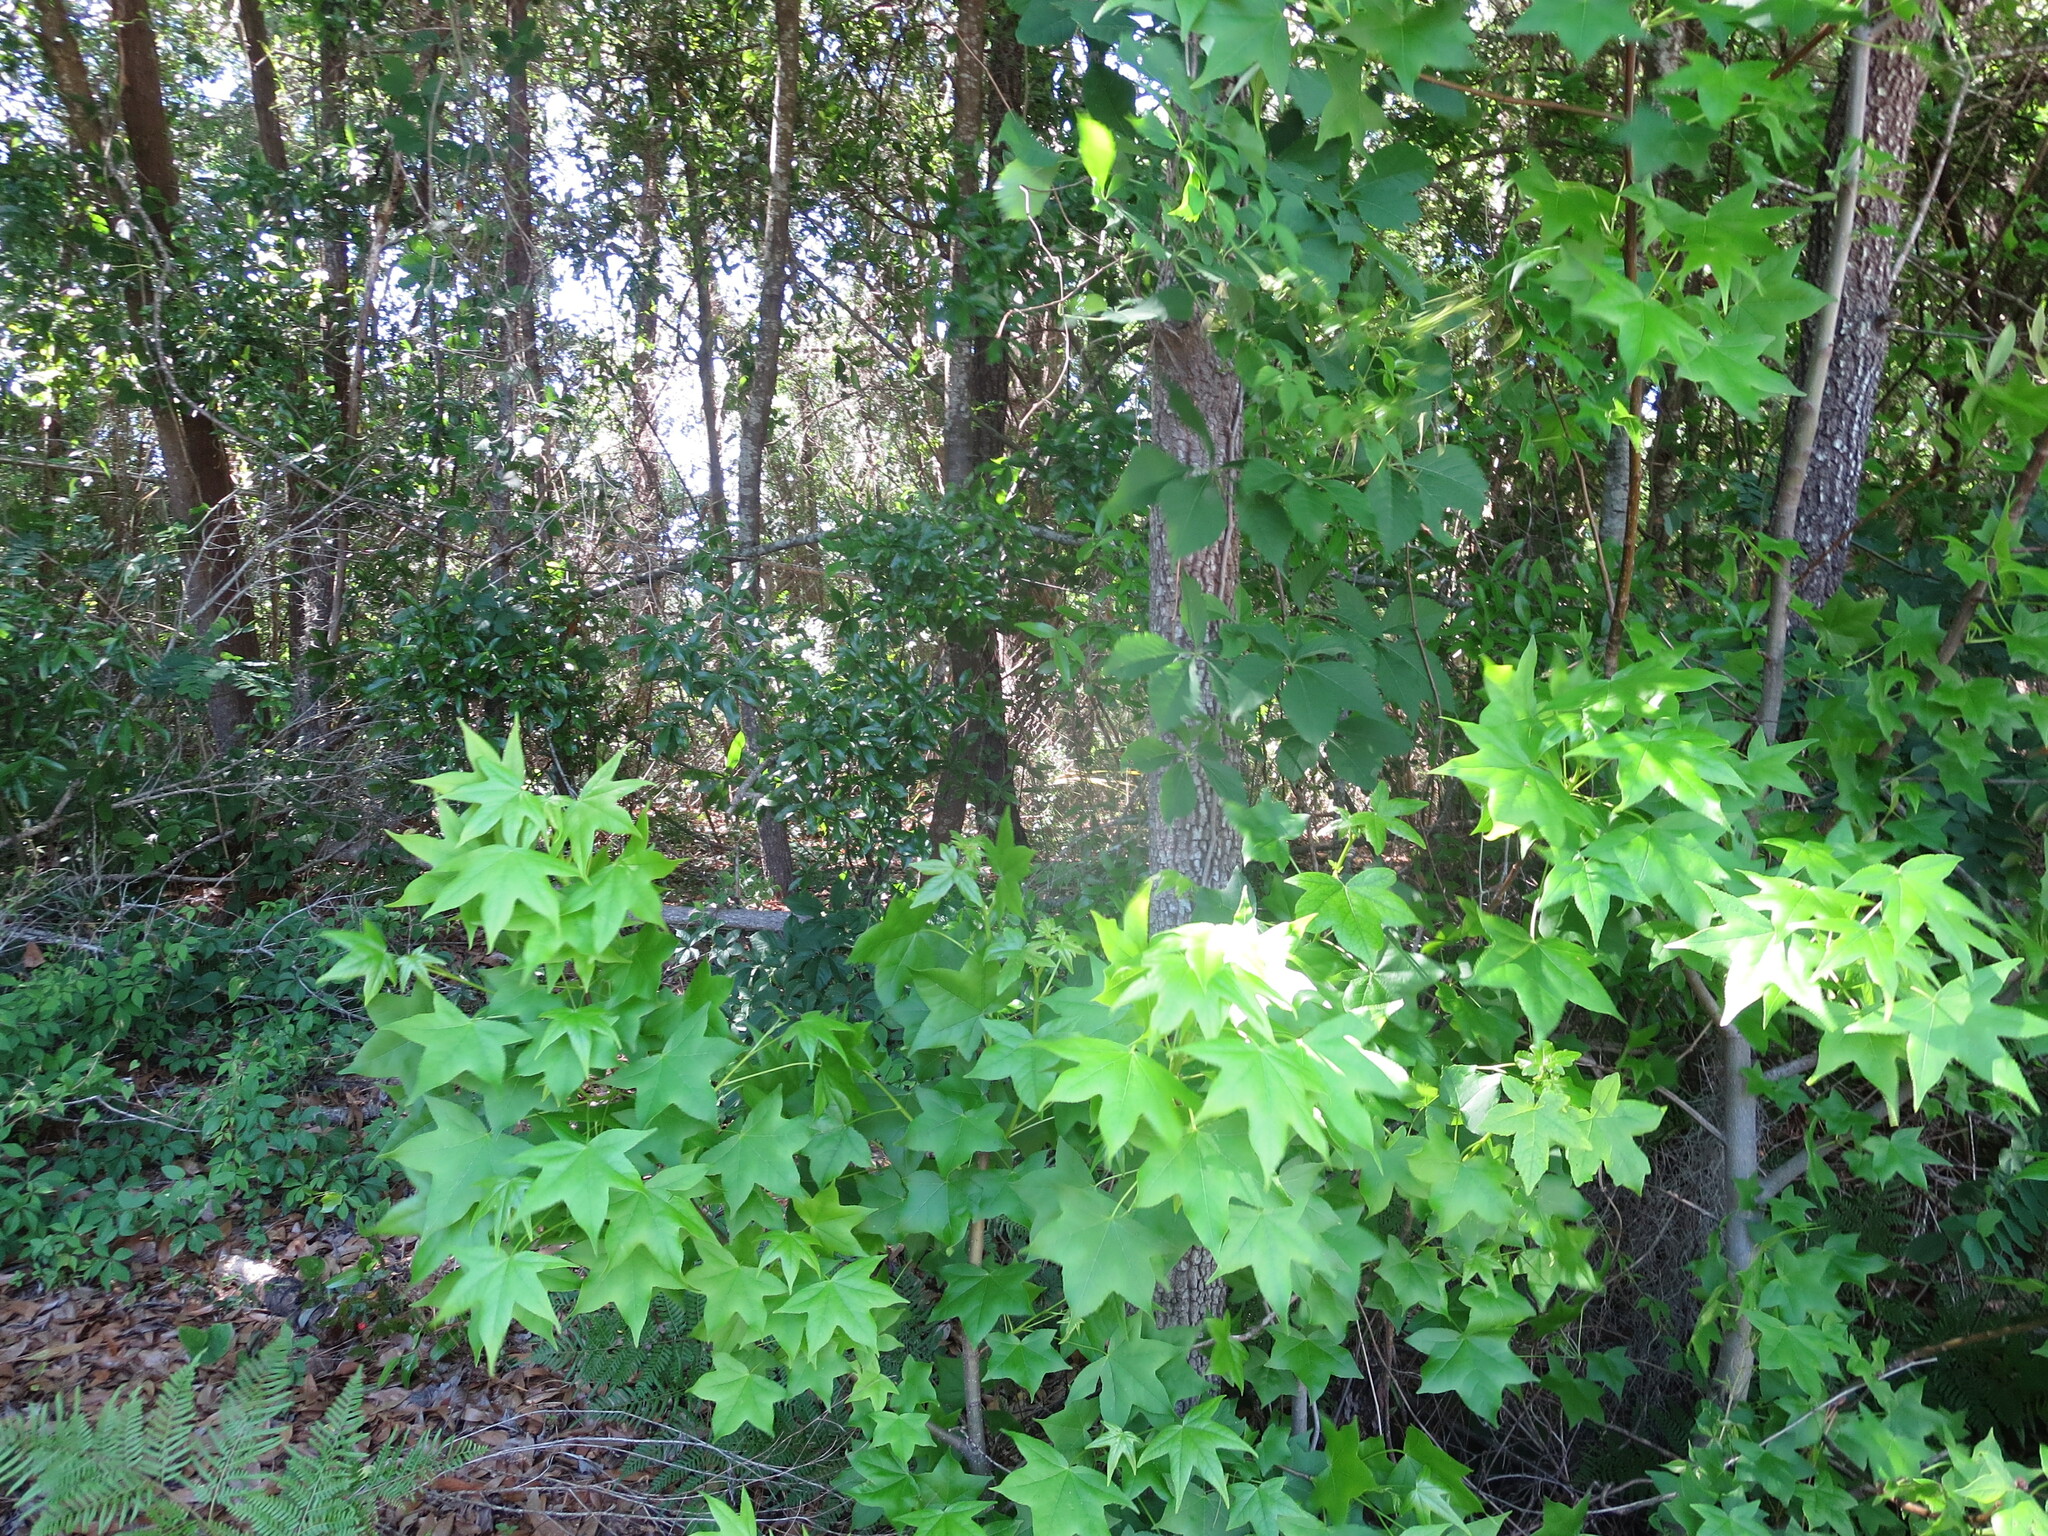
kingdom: Plantae
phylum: Tracheophyta
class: Magnoliopsida
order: Saxifragales
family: Altingiaceae
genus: Liquidambar
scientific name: Liquidambar styraciflua
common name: Sweet gum
